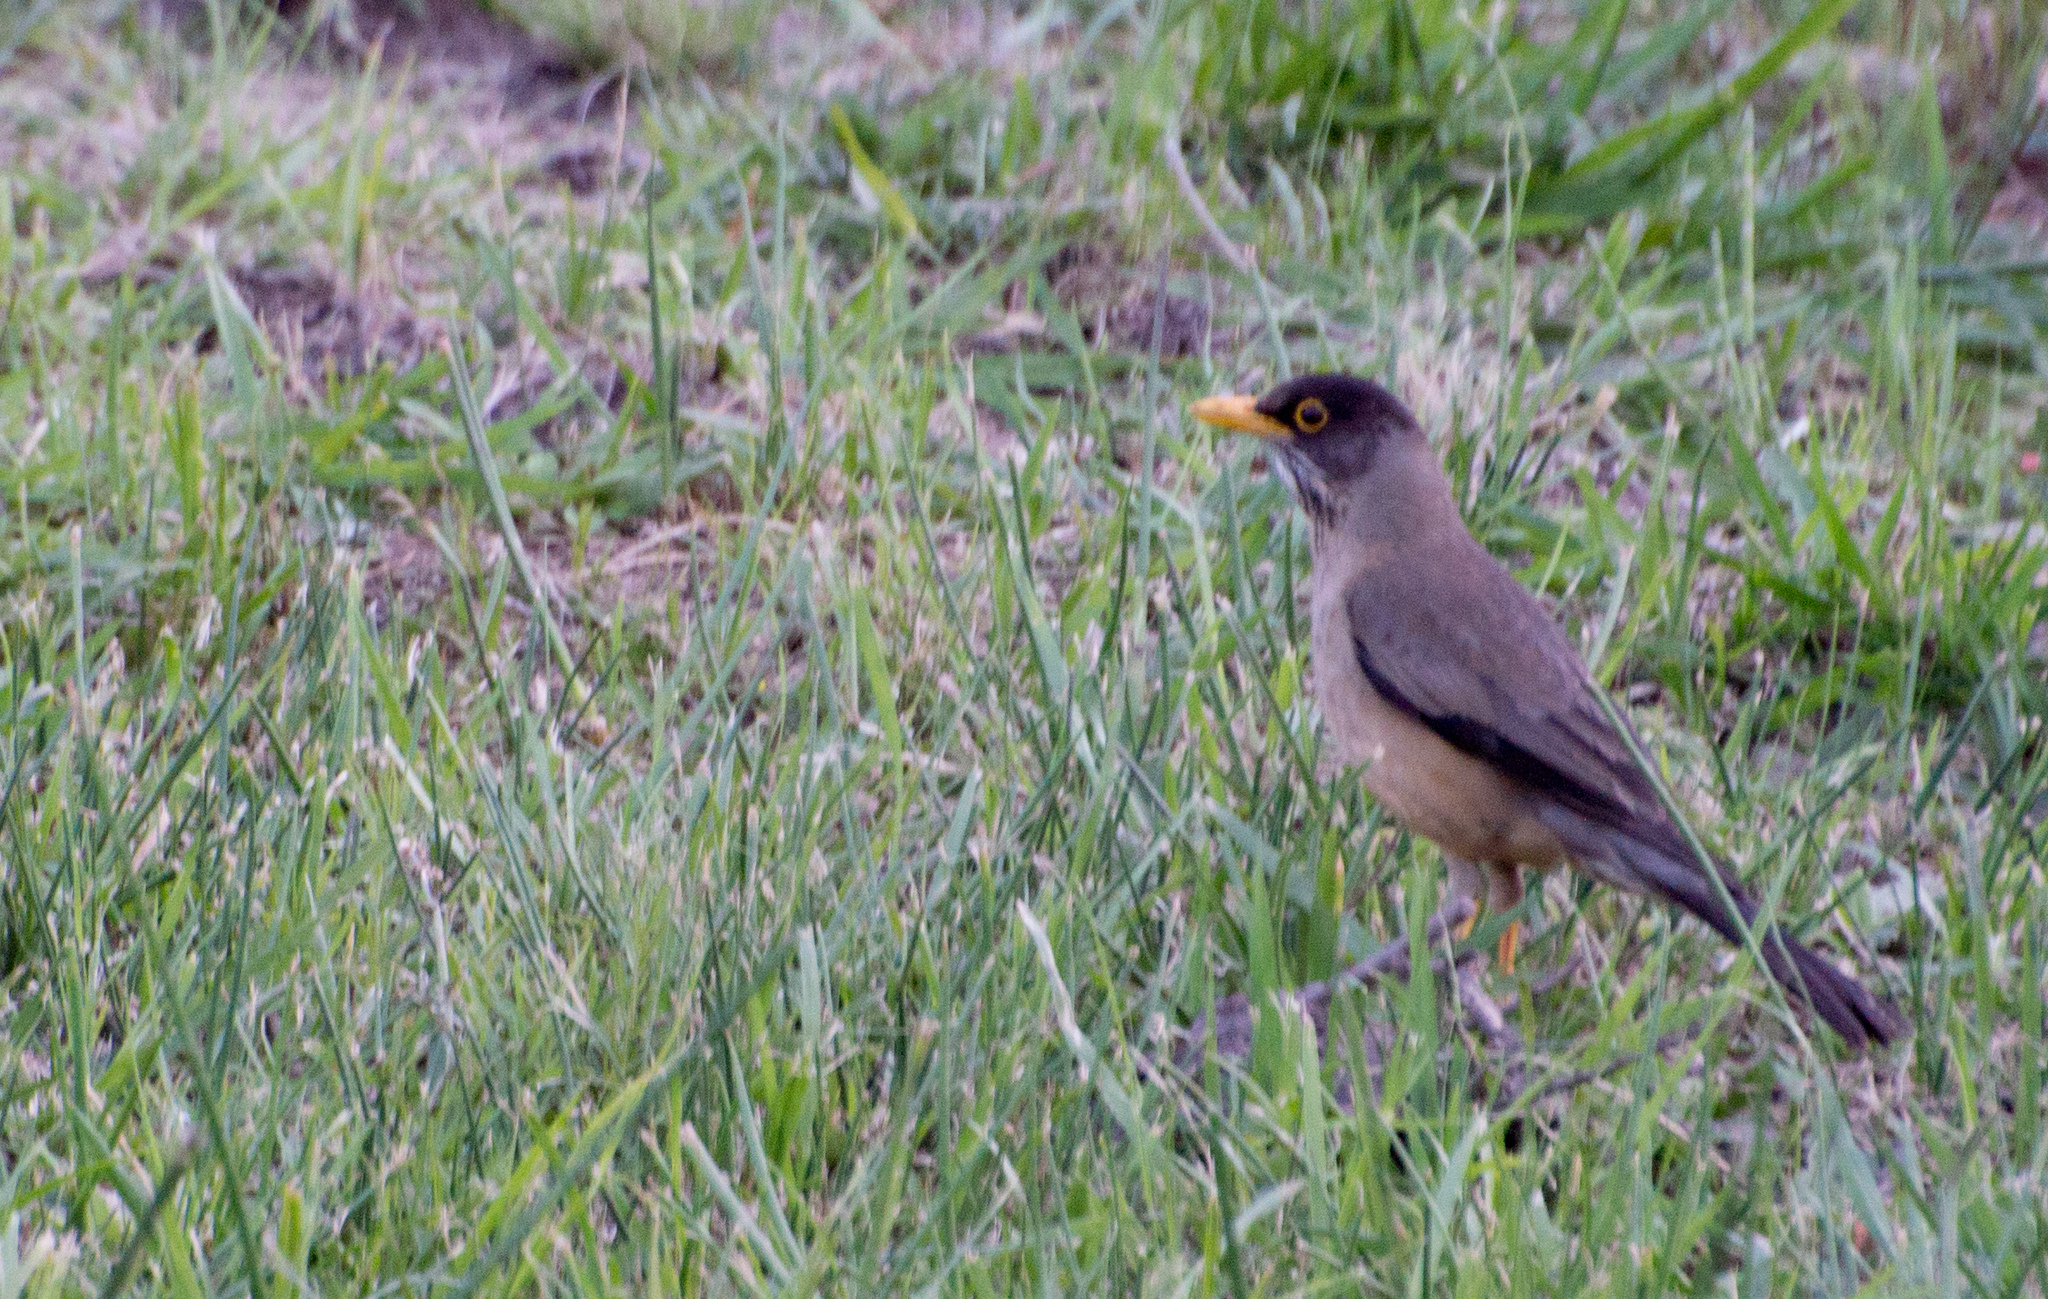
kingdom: Animalia
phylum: Chordata
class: Aves
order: Passeriformes
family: Turdidae
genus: Turdus
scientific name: Turdus falcklandii
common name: Austral thrush
